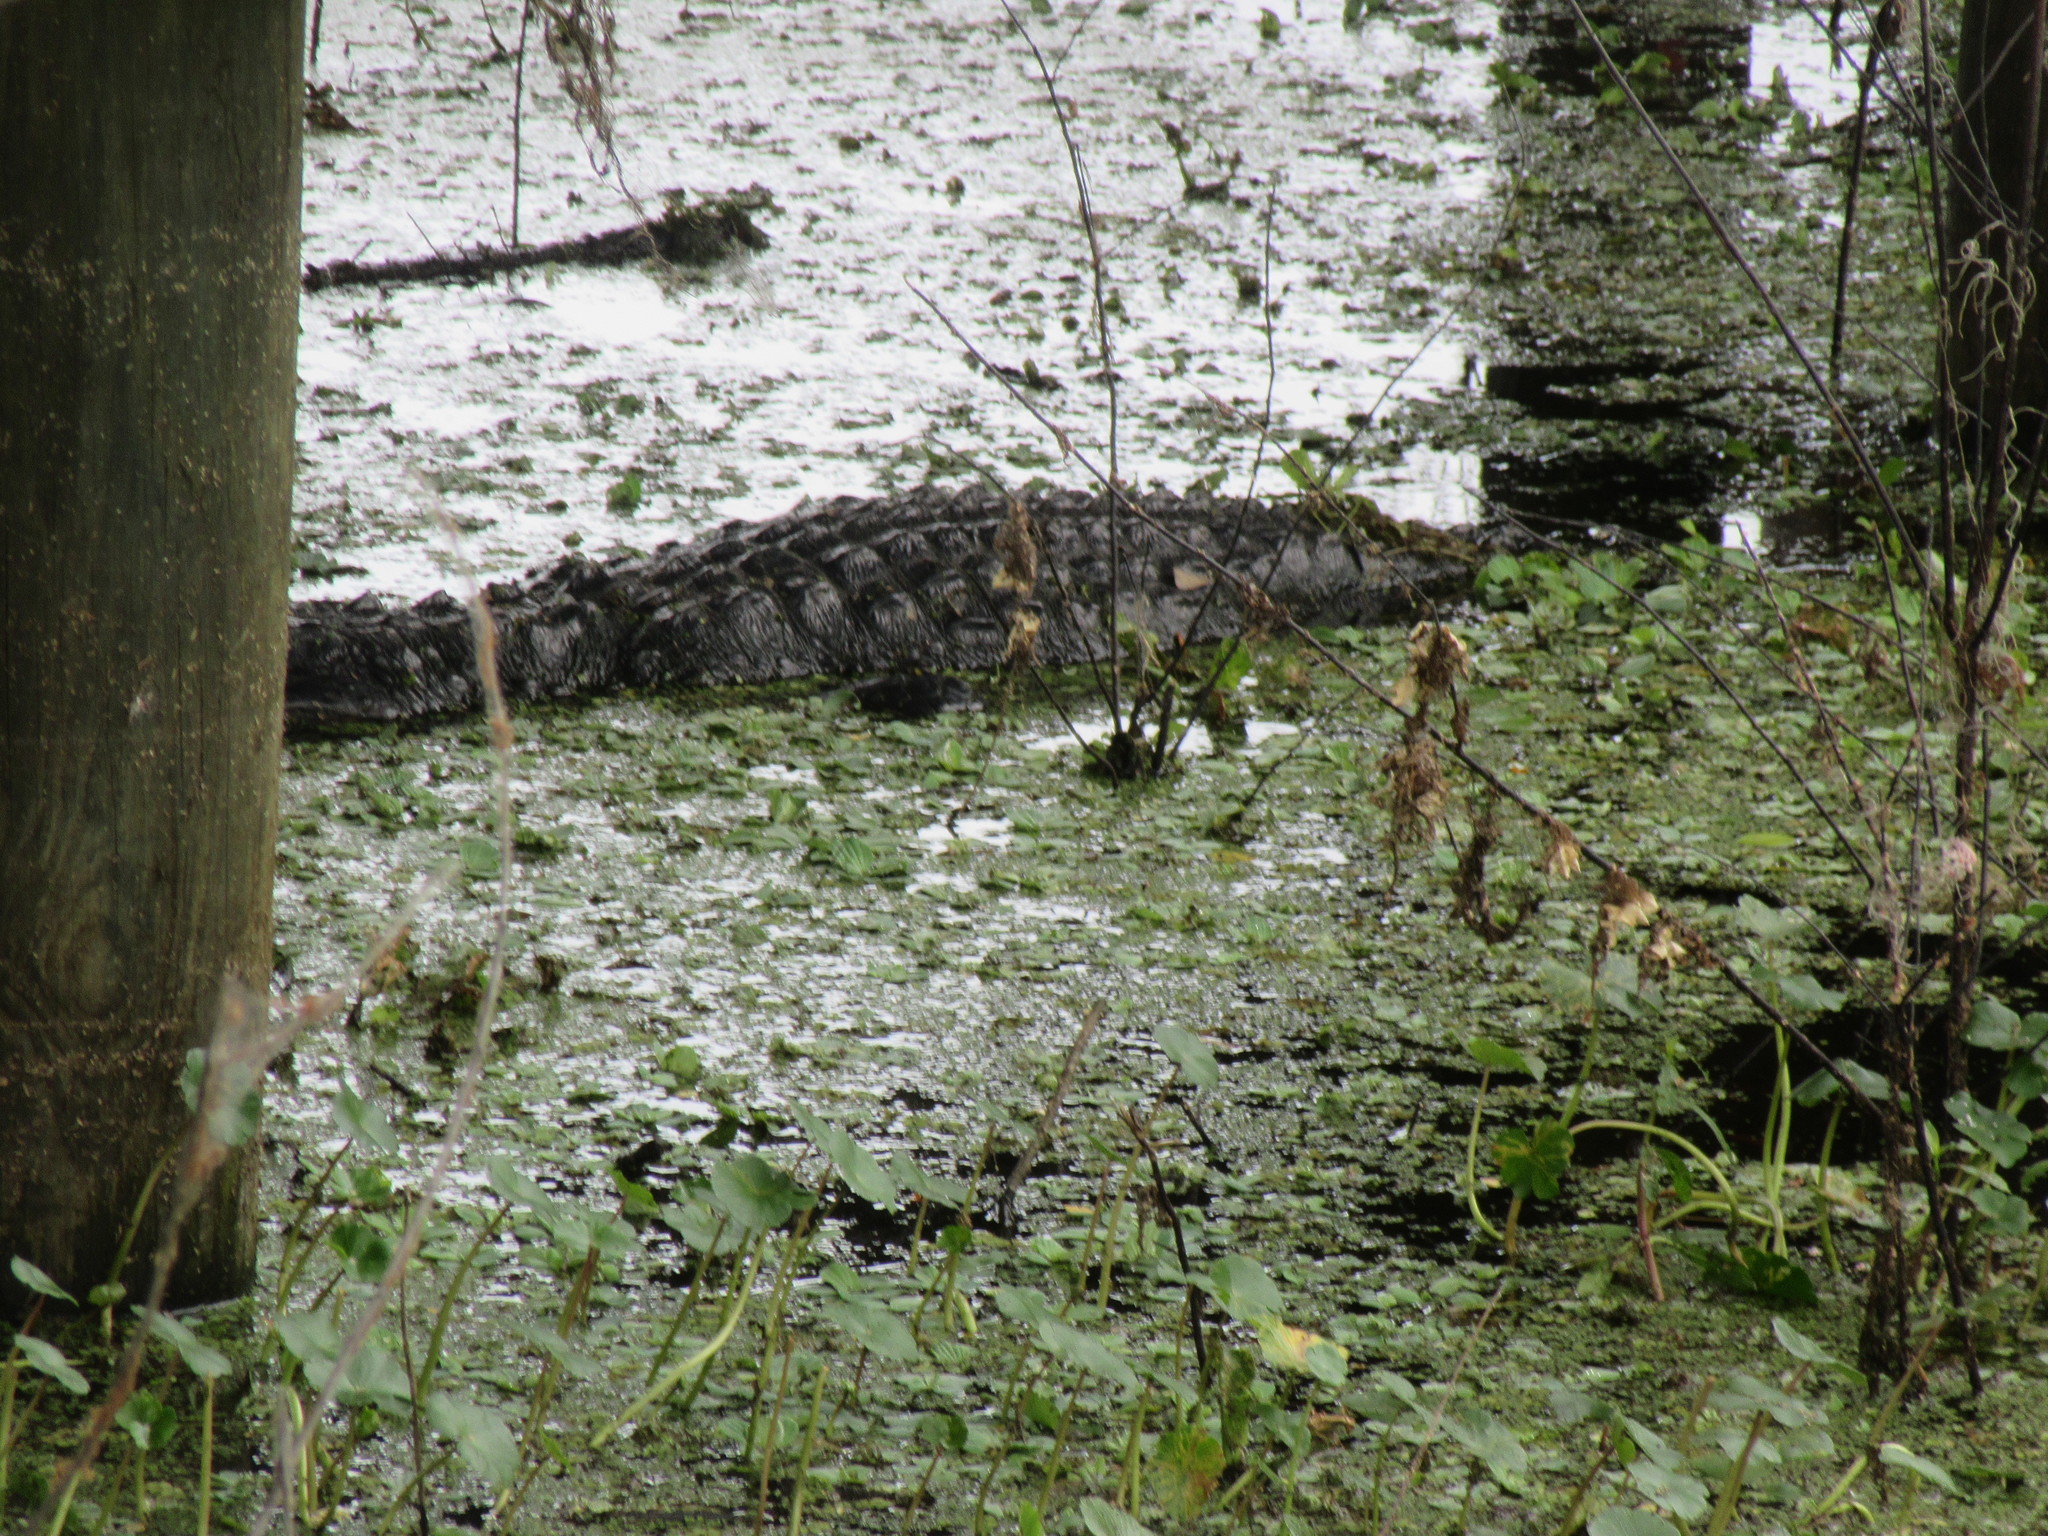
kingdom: Animalia
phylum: Chordata
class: Crocodylia
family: Alligatoridae
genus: Alligator
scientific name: Alligator mississippiensis
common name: American alligator
